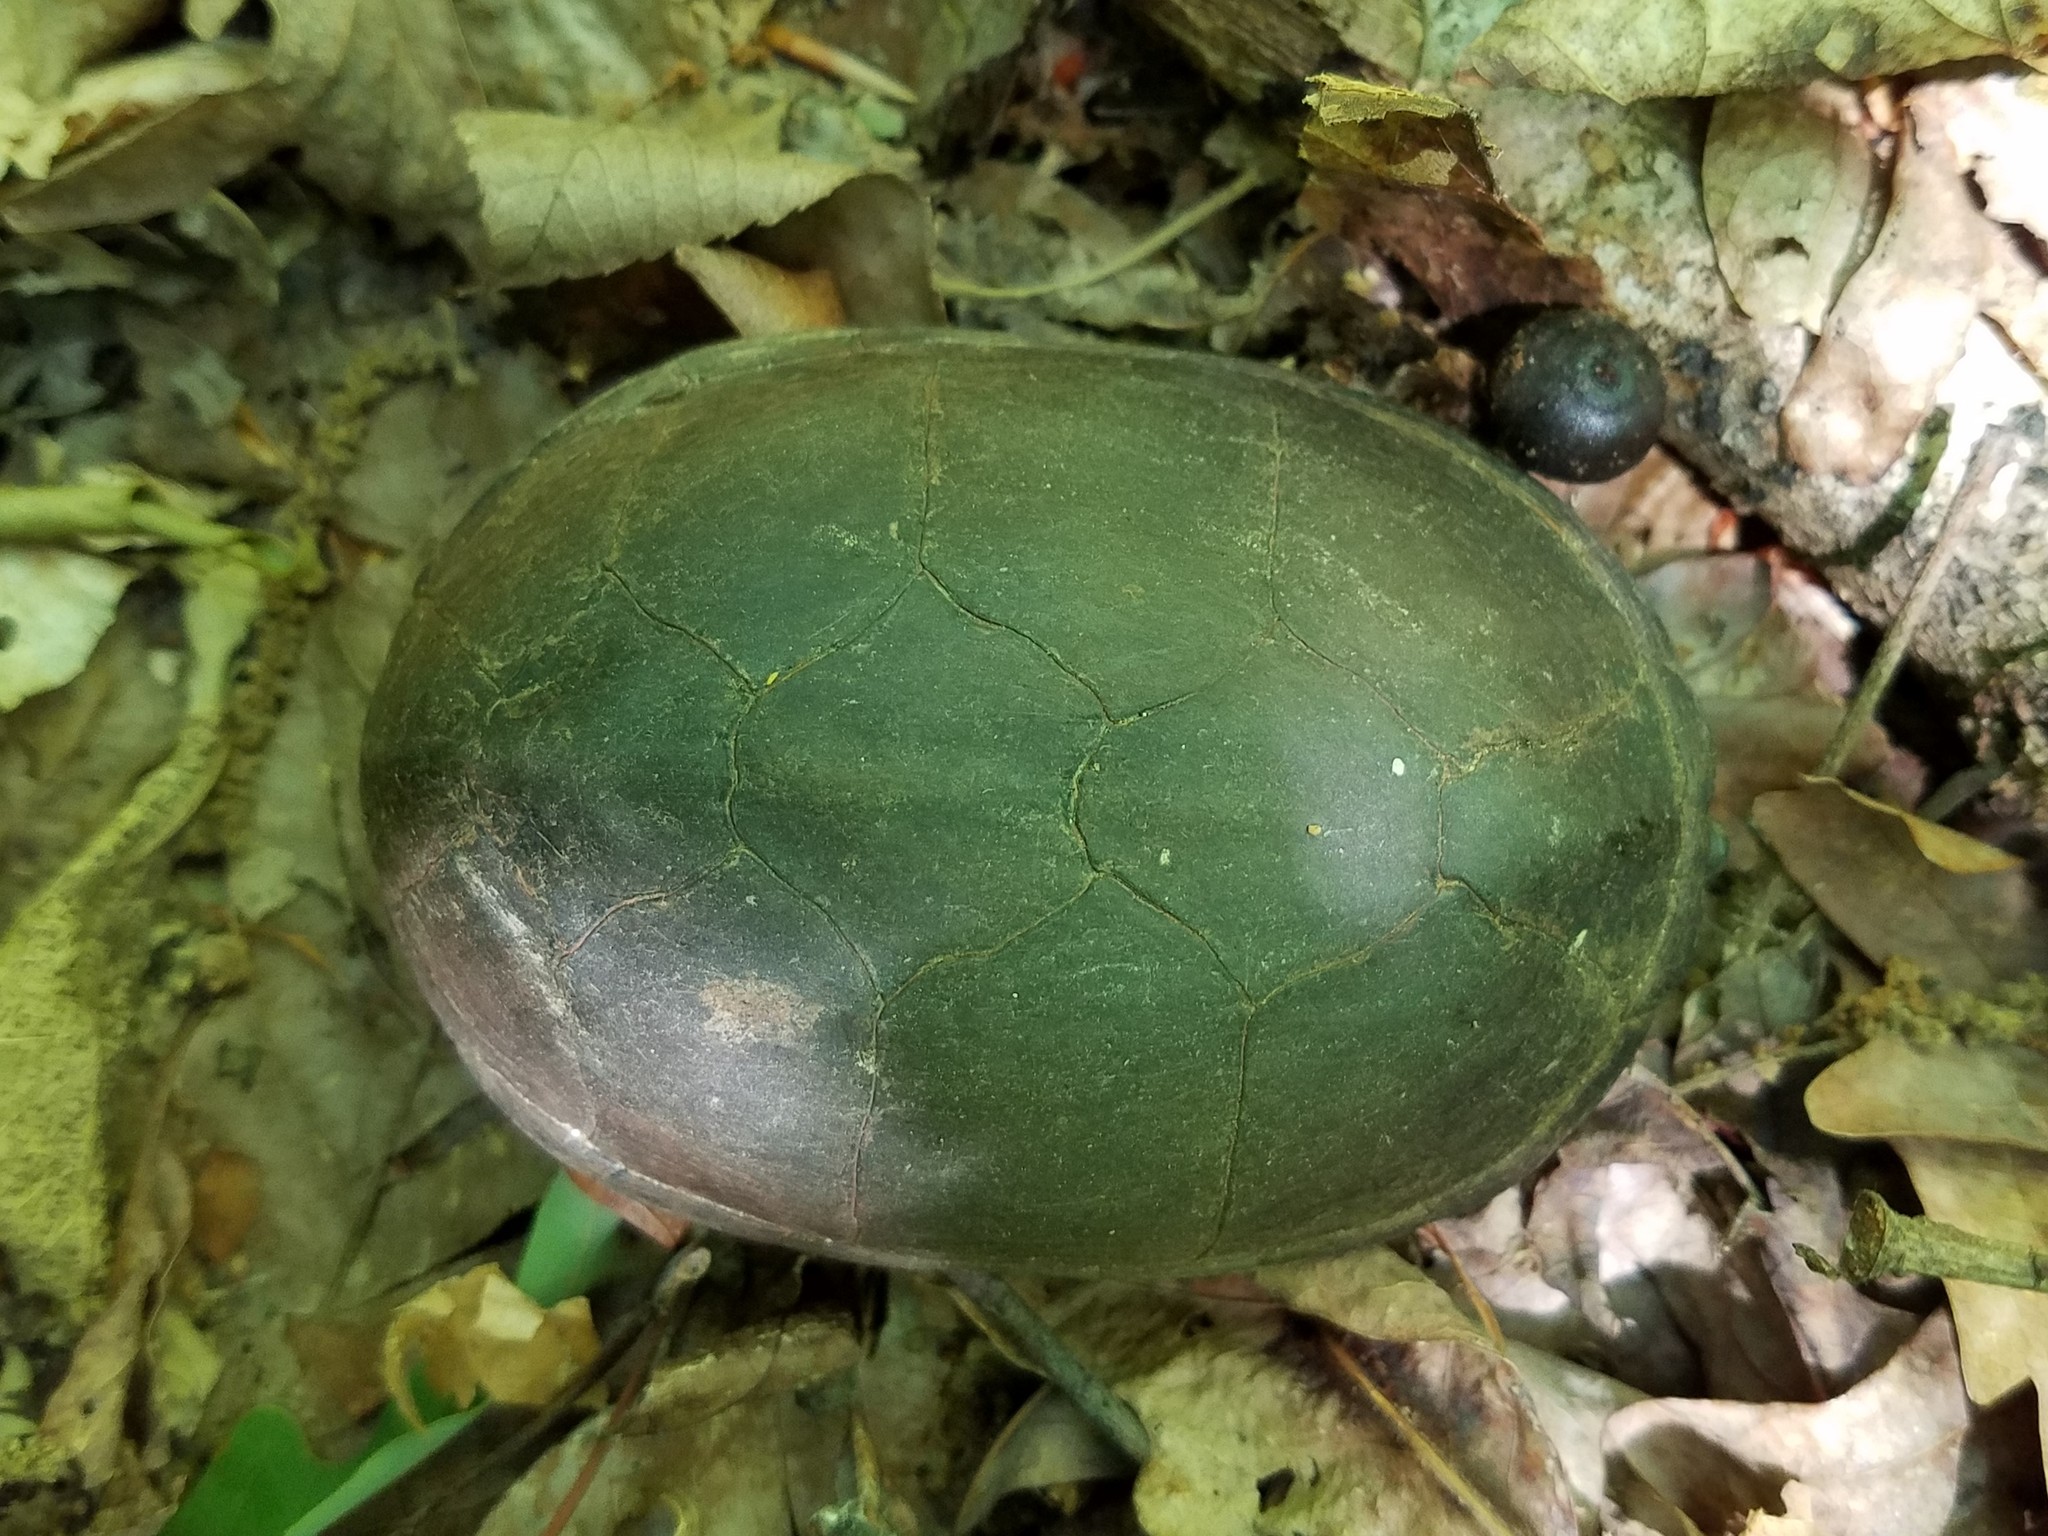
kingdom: Animalia
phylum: Chordata
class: Testudines
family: Kinosternidae
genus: Sternotherus
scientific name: Sternotherus odoratus
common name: Common musk turtle
